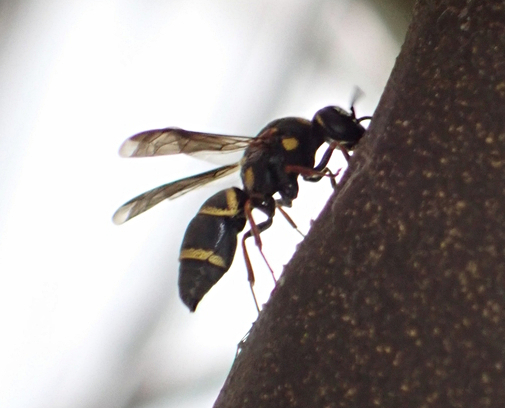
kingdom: Animalia
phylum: Arthropoda
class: Insecta
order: Hymenoptera
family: Eumenidae
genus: Parancistrocerus
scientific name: Parancistrocerus fulvipes
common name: Potter wasp
